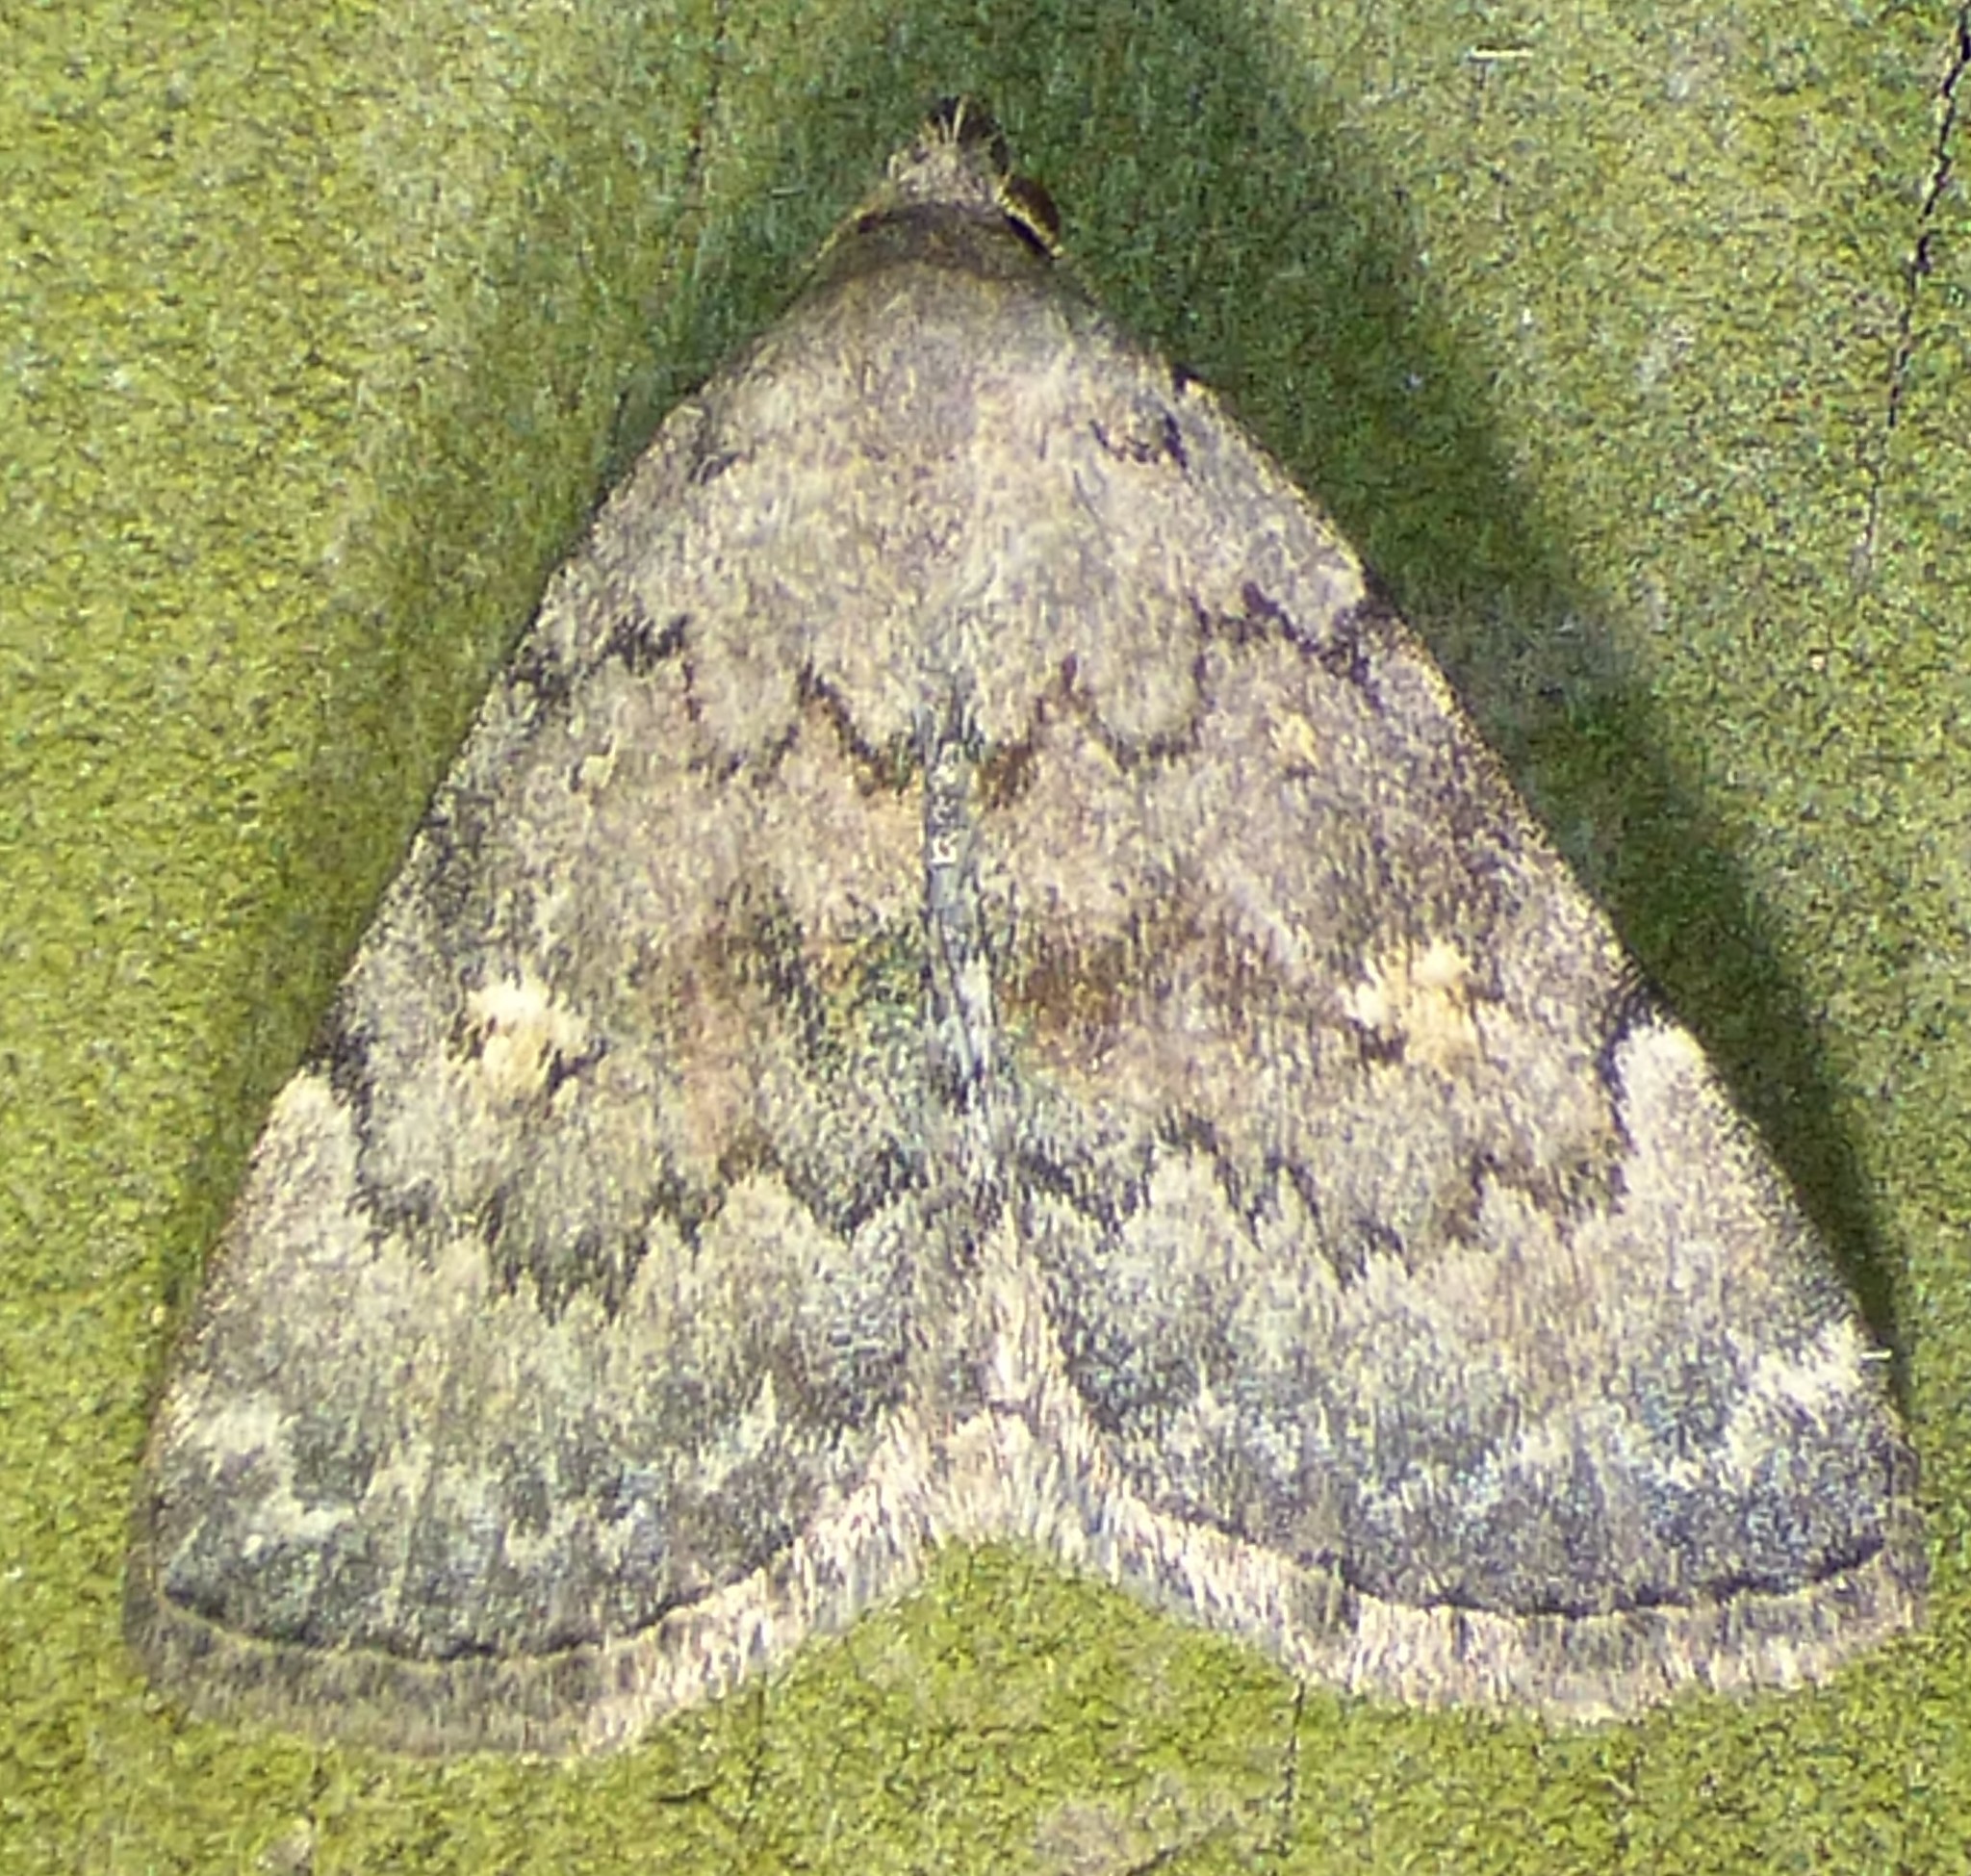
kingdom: Animalia
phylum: Arthropoda
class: Insecta
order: Lepidoptera
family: Erebidae
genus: Idia
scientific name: Idia aemula
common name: Common idia moth
